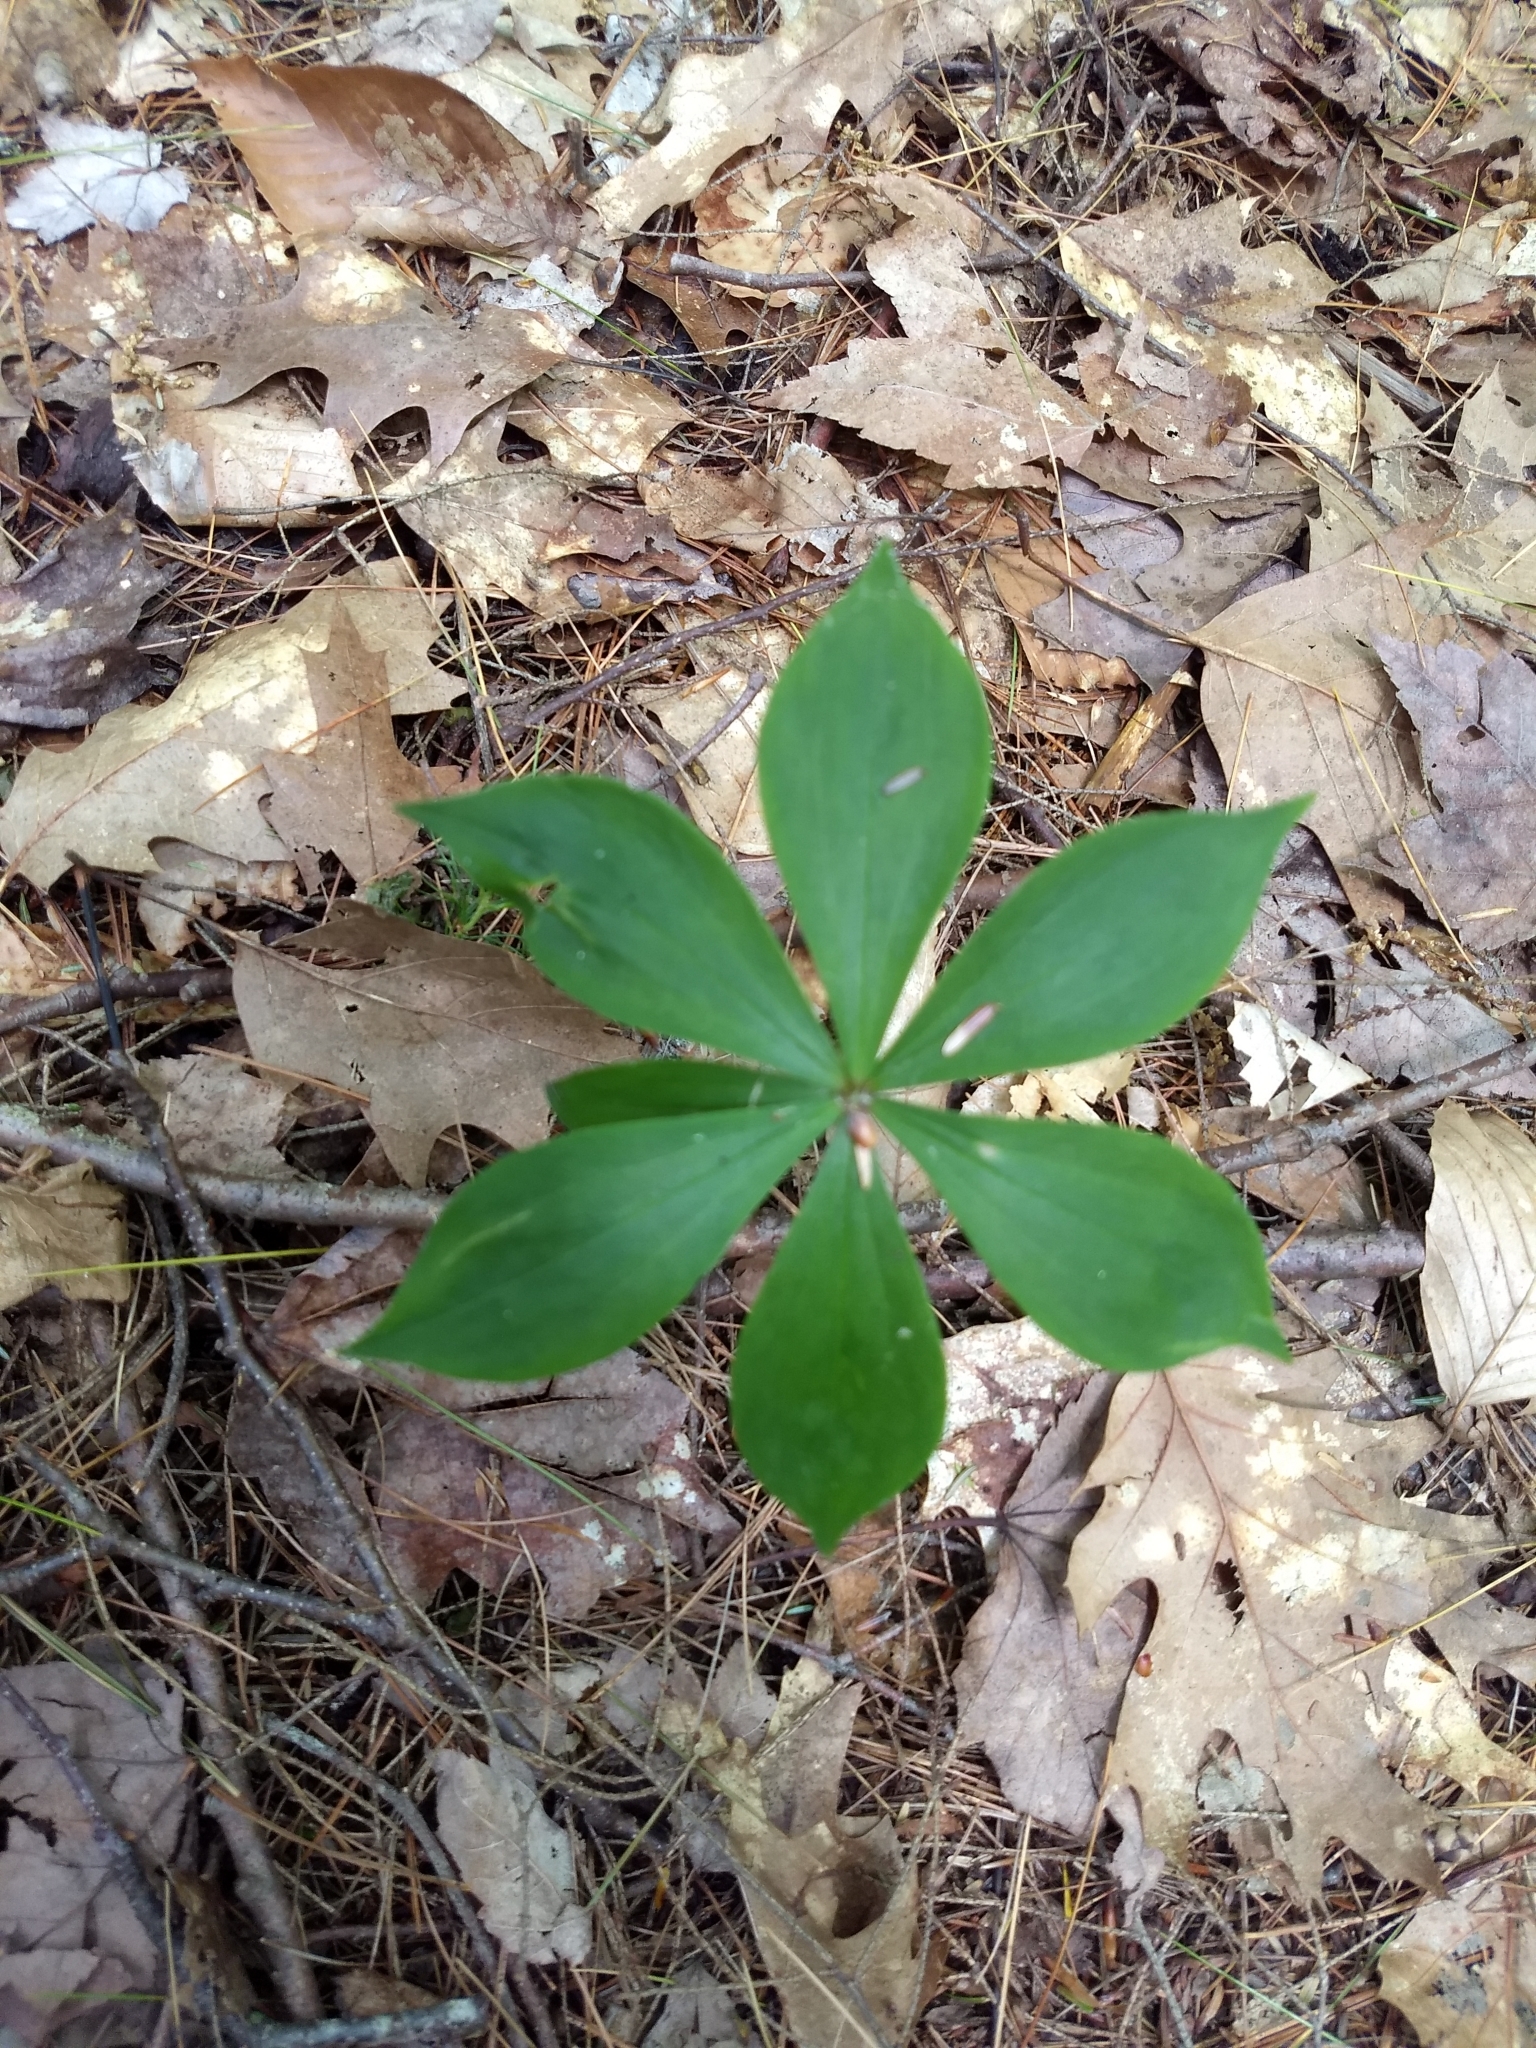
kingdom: Plantae
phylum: Tracheophyta
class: Liliopsida
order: Liliales
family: Liliaceae
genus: Medeola
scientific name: Medeola virginiana
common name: Indian cucumber-root
